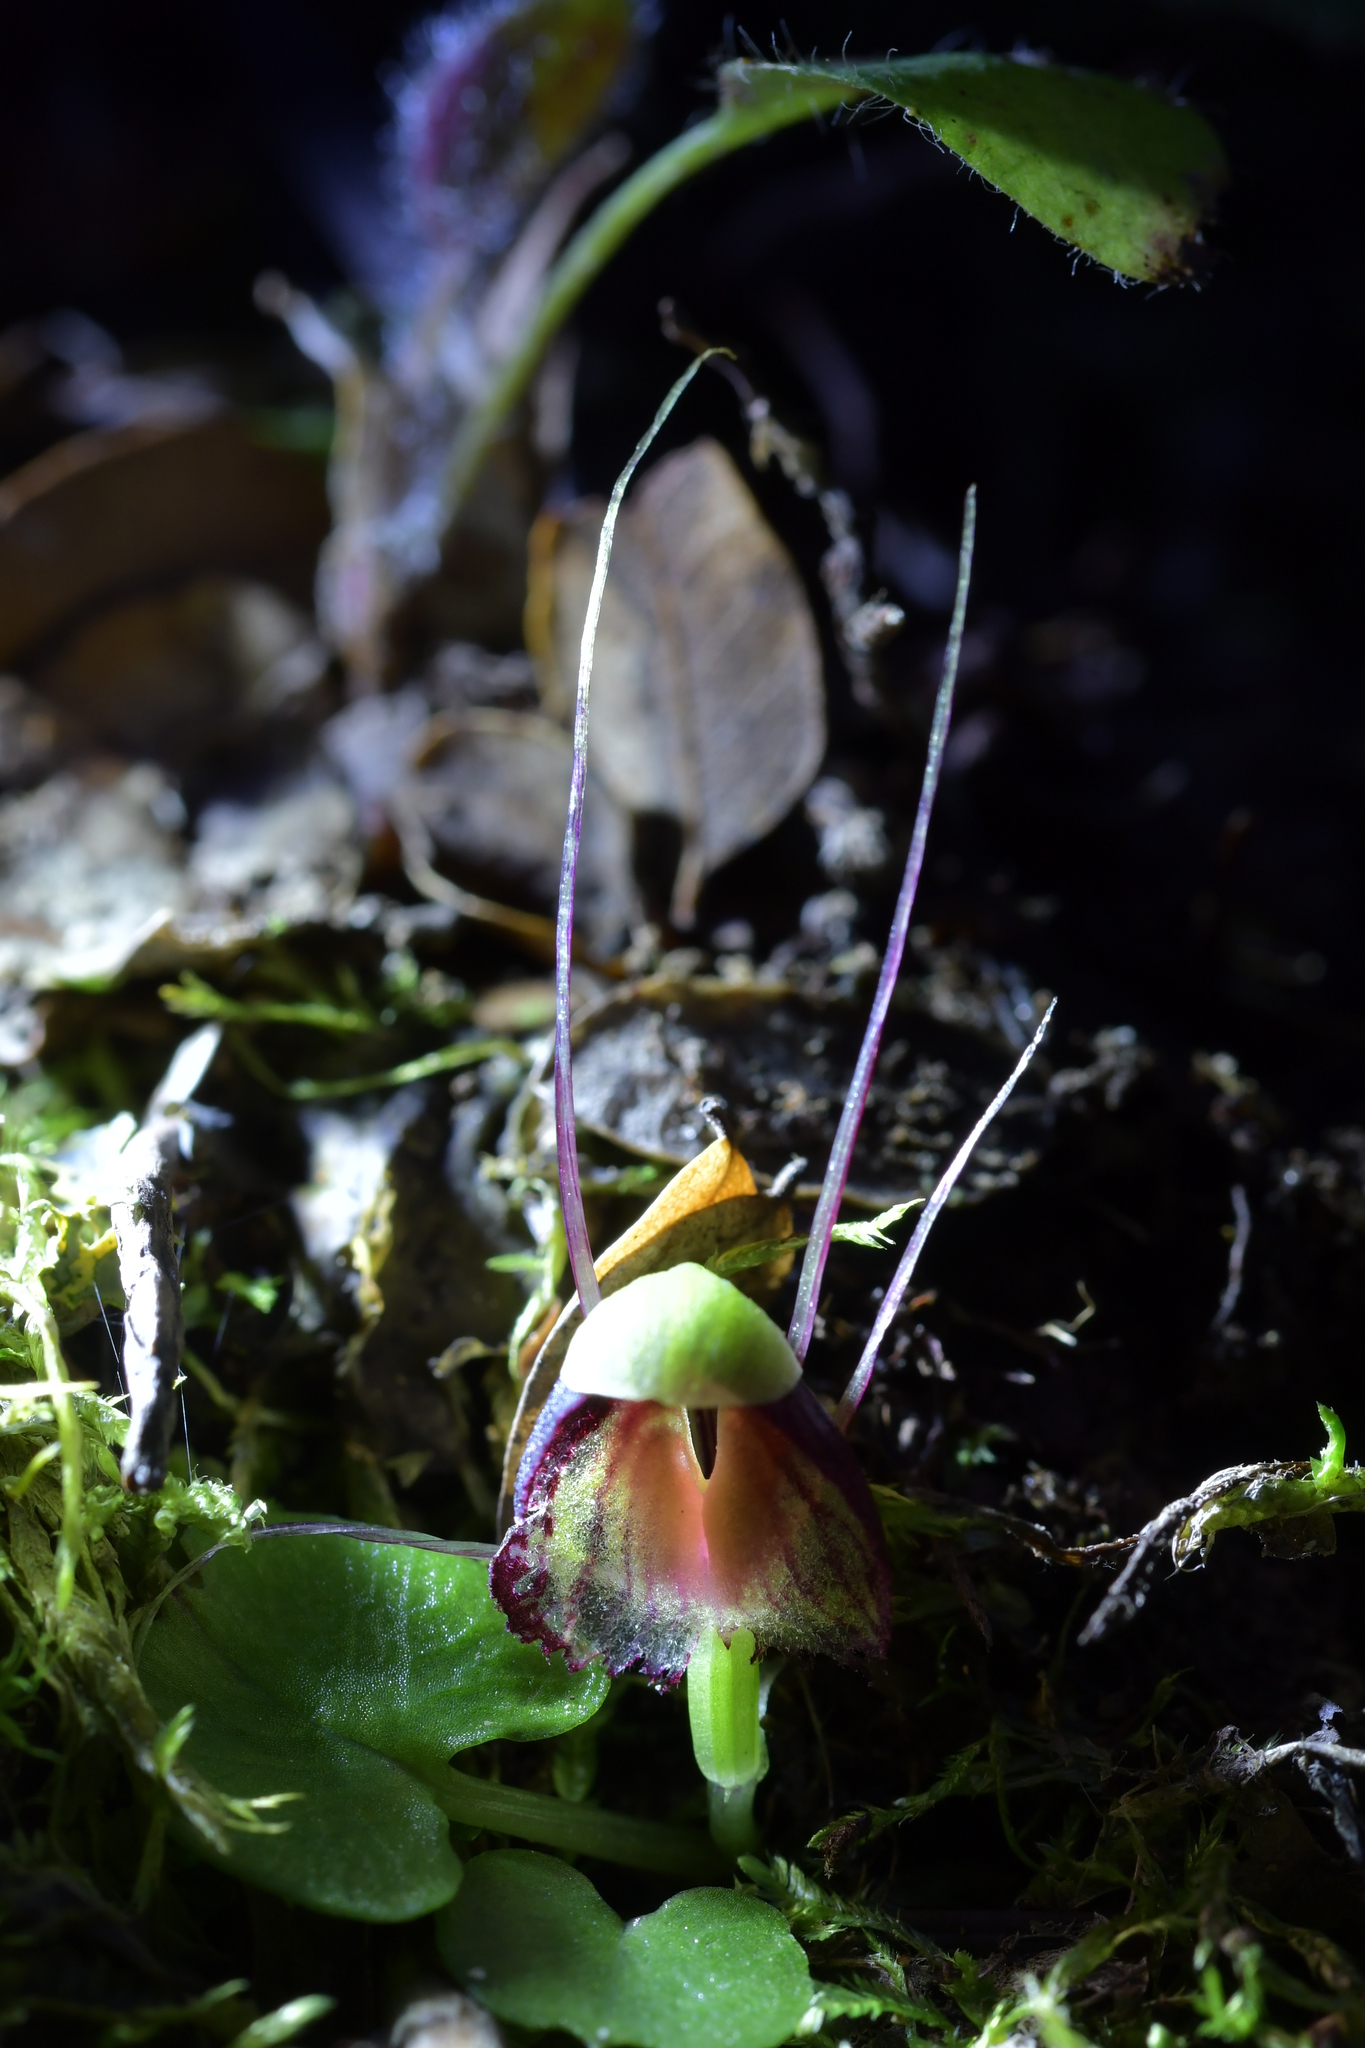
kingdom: Plantae
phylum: Tracheophyta
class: Liliopsida
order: Asparagales
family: Orchidaceae
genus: Corybas
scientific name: Corybas trilobus
